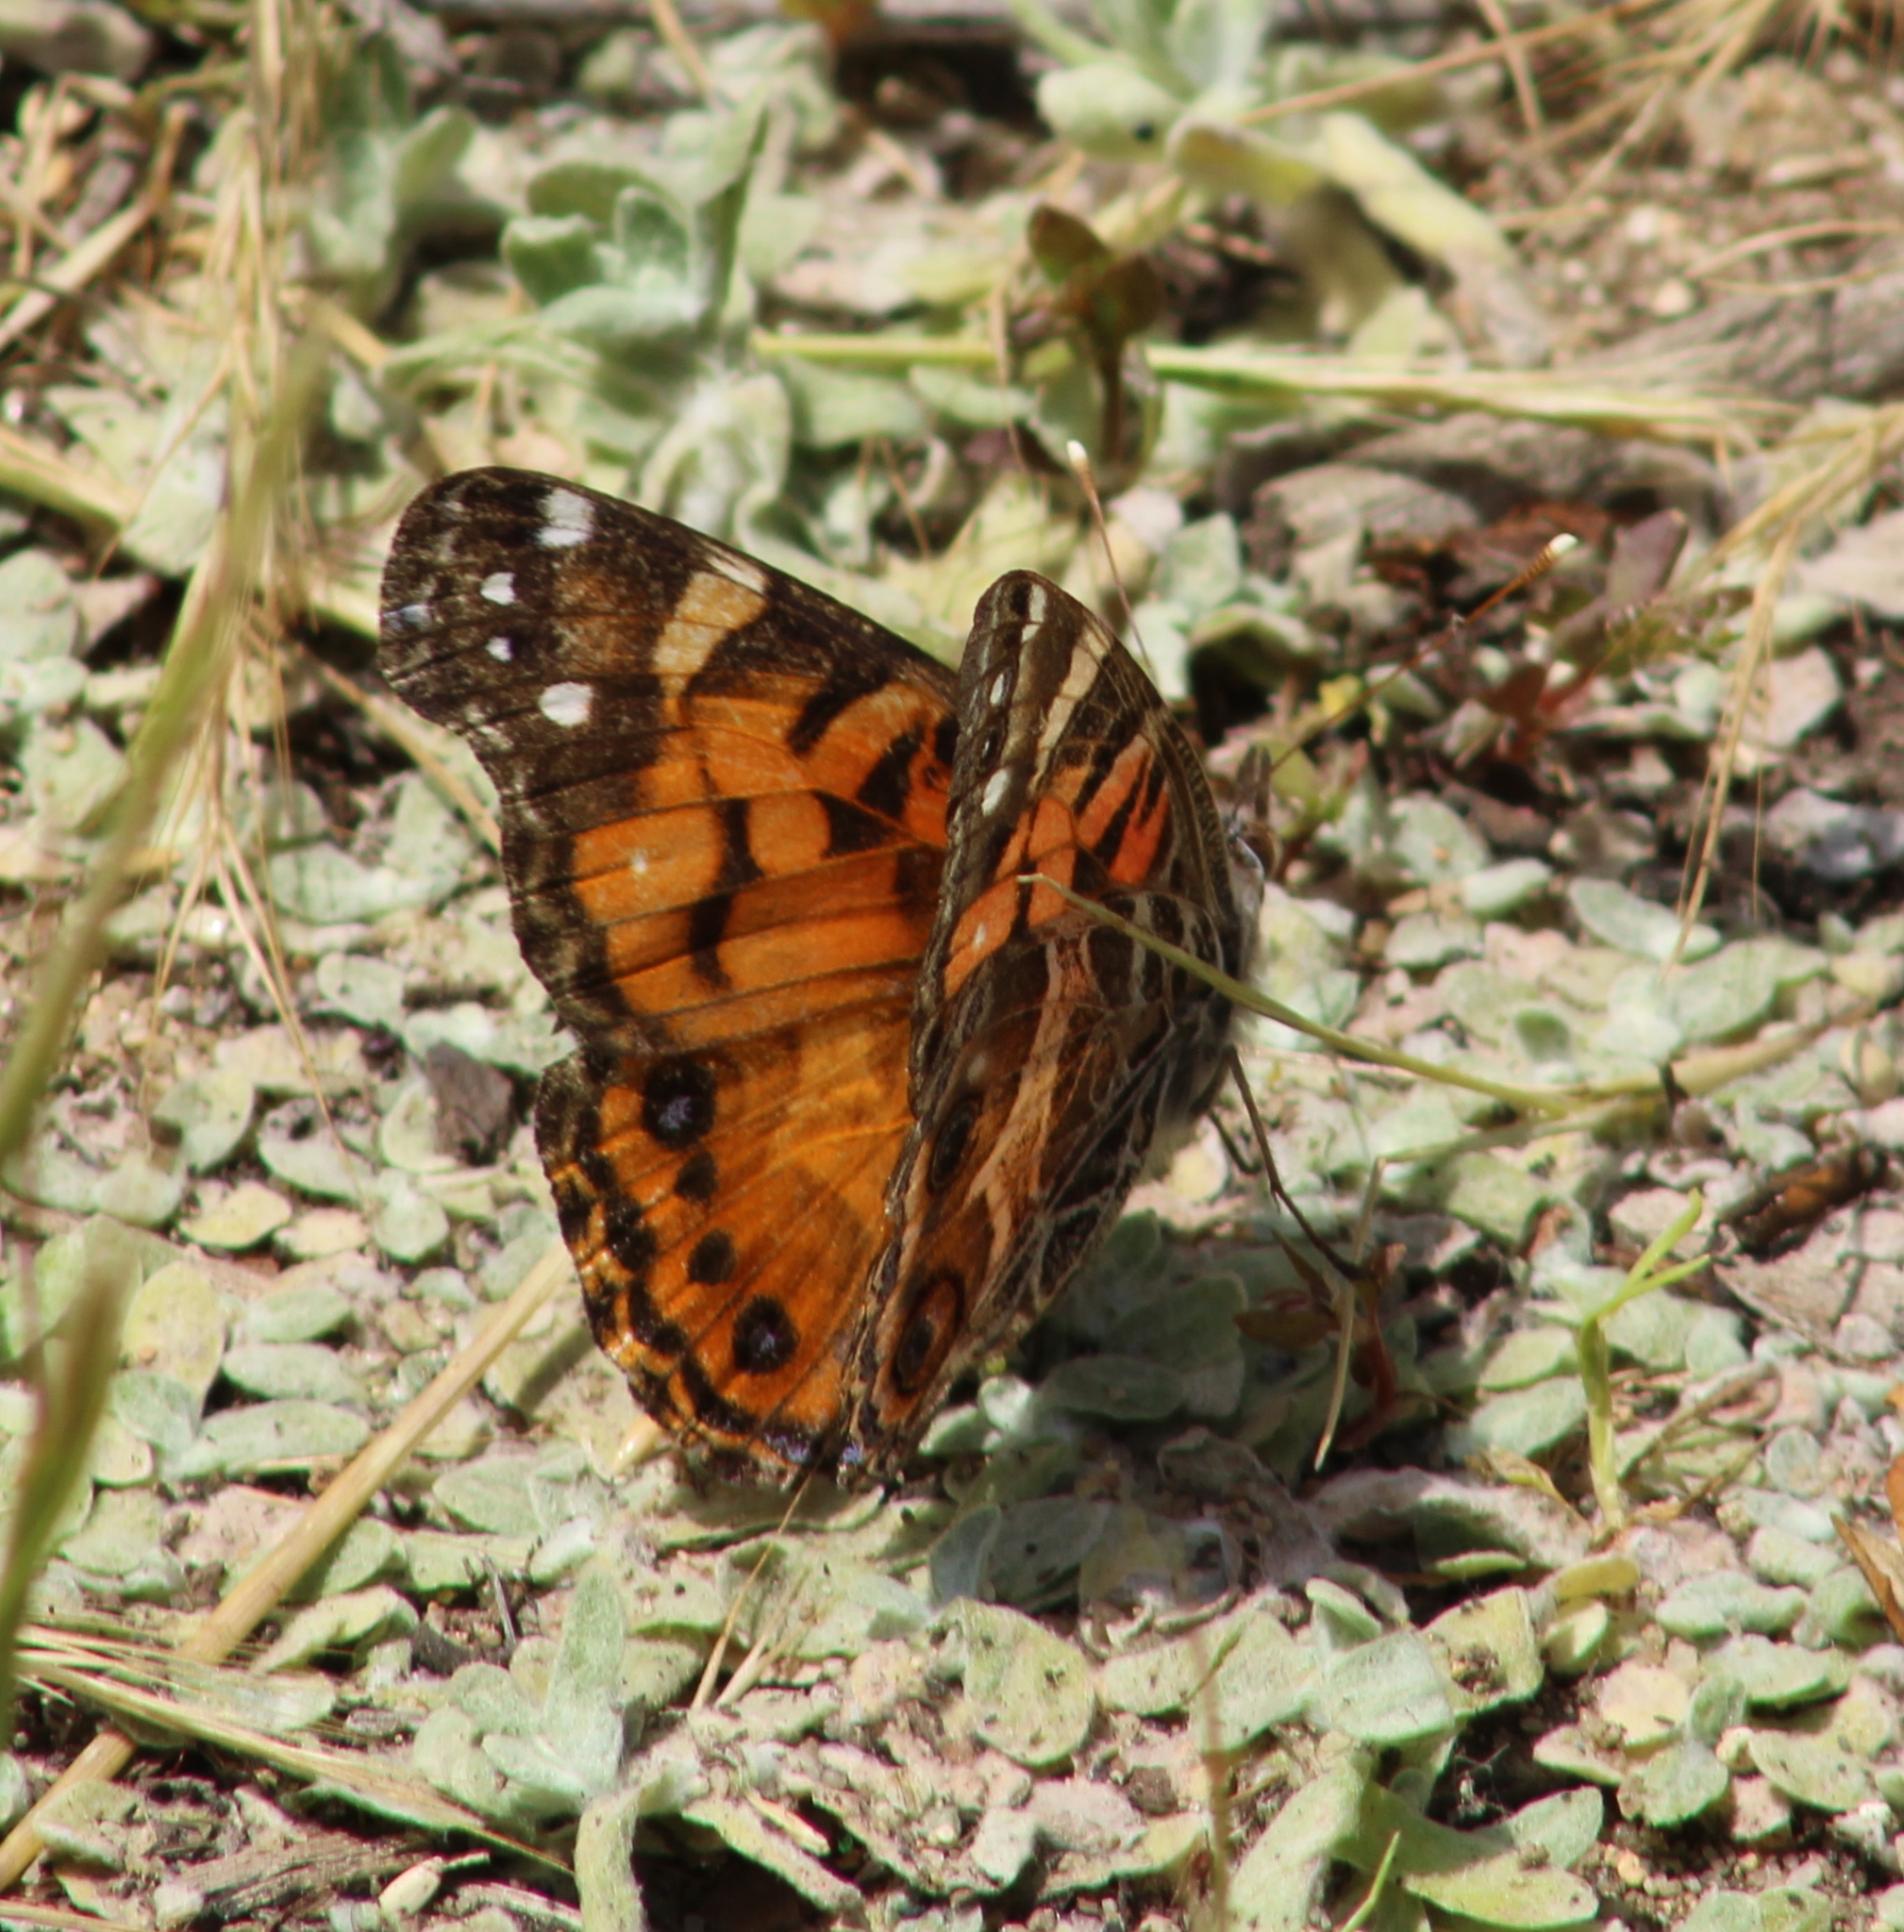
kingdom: Animalia
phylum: Arthropoda
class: Insecta
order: Lepidoptera
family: Nymphalidae
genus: Vanessa
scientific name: Vanessa virginiensis
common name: American lady
